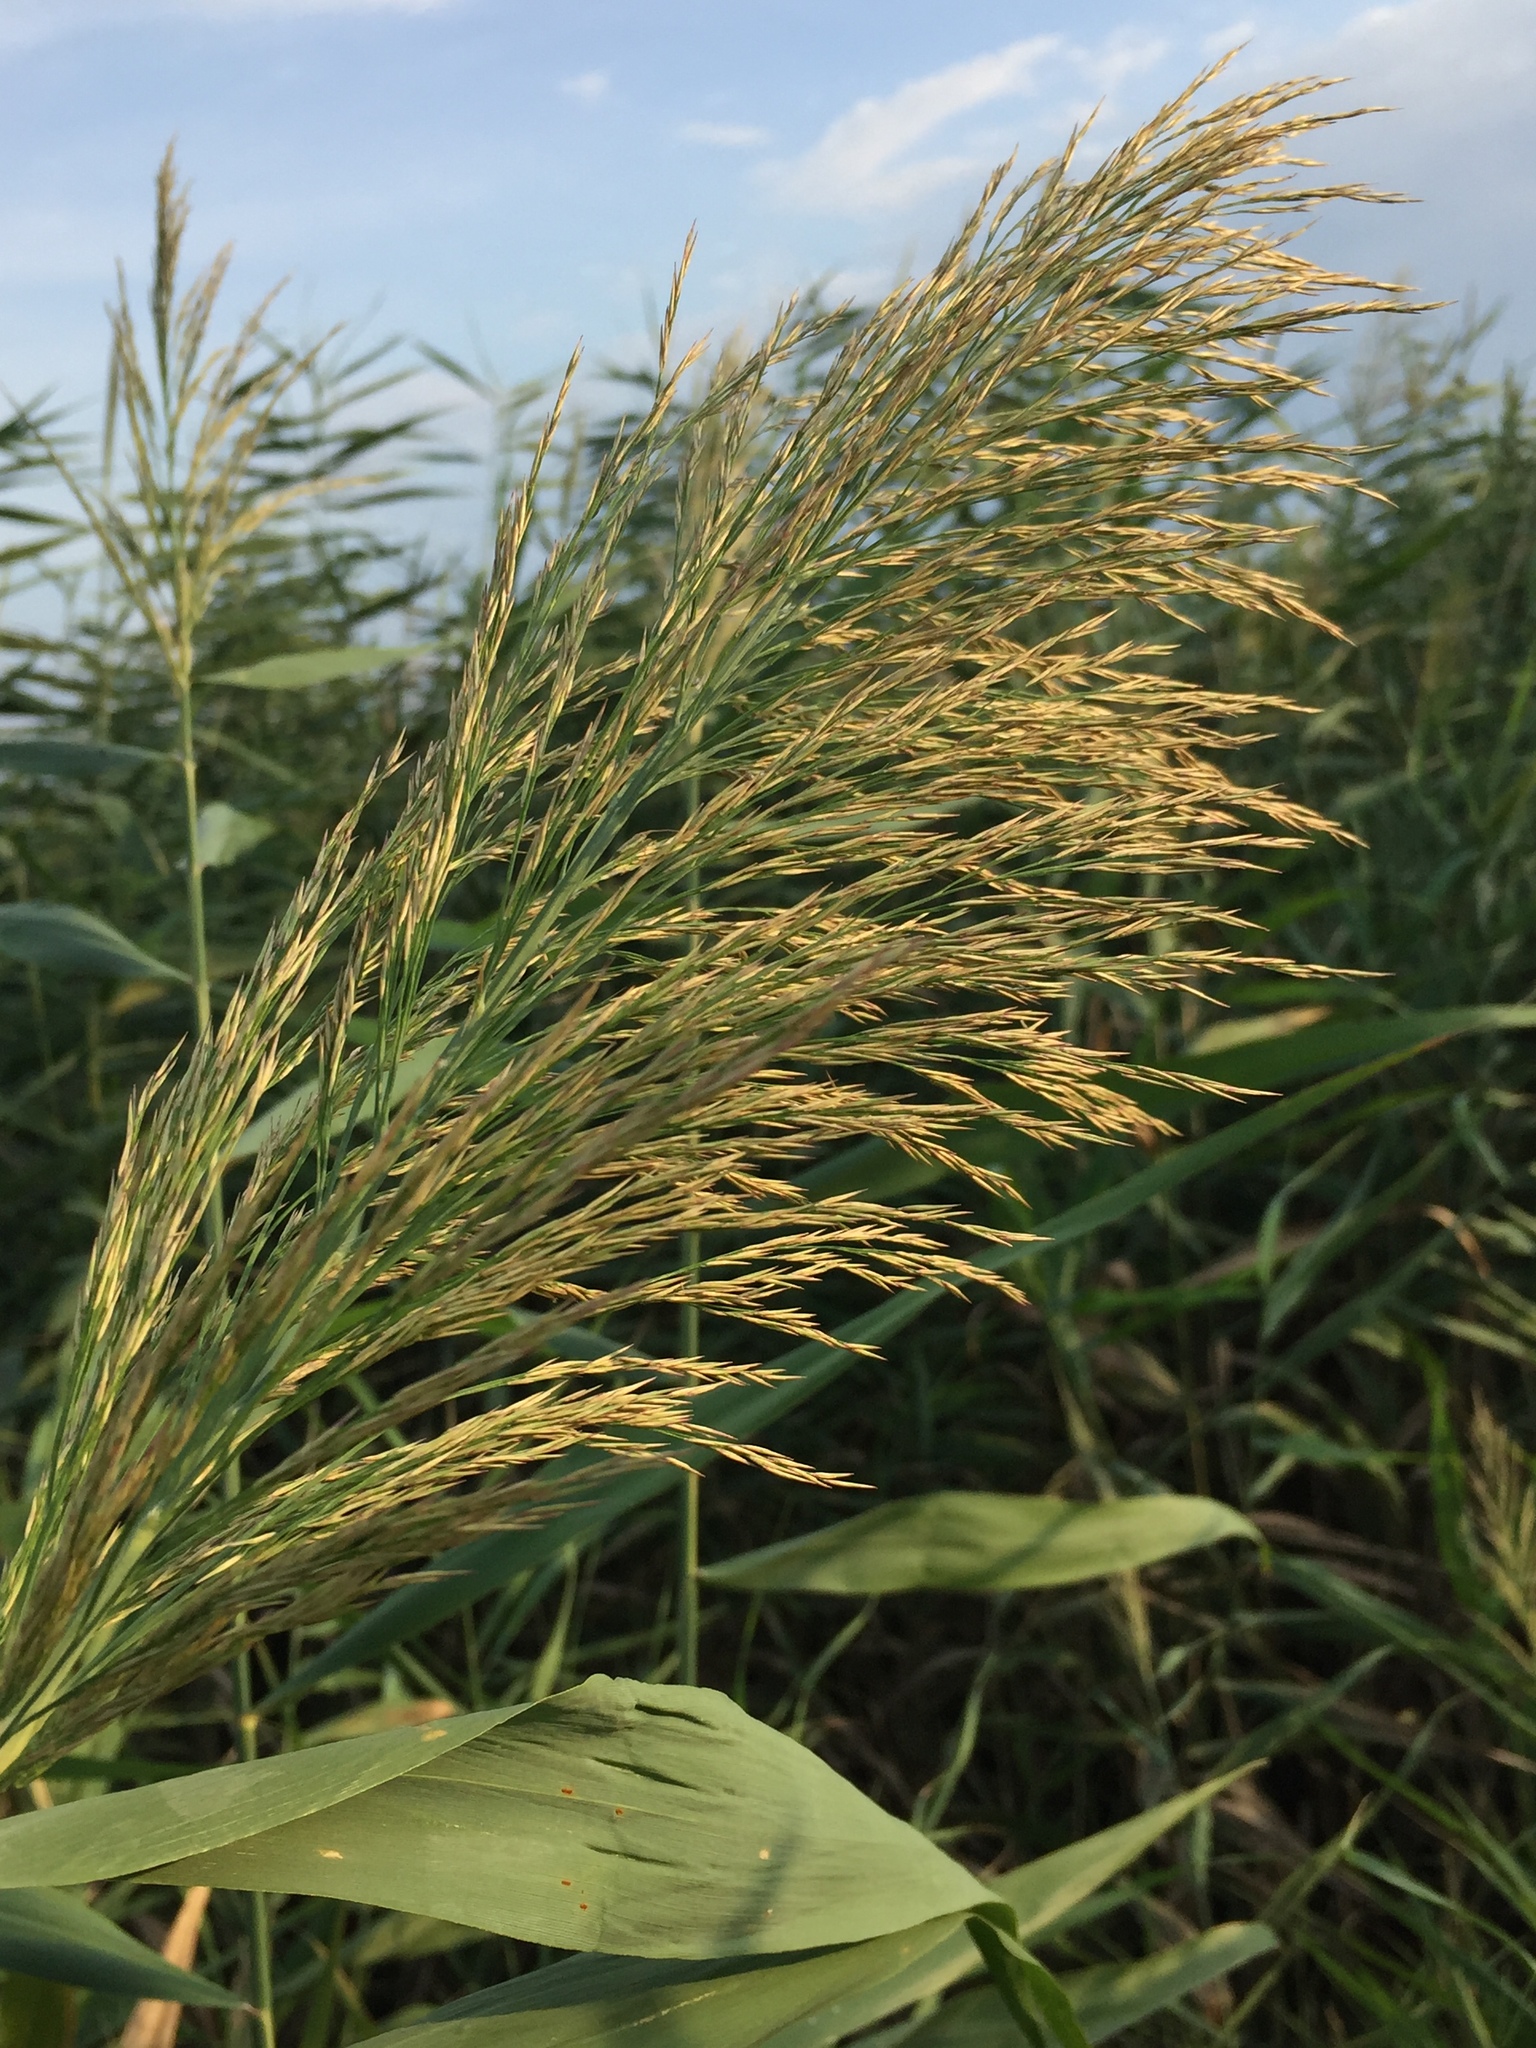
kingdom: Plantae
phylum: Tracheophyta
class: Liliopsida
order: Poales
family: Poaceae
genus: Phragmites
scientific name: Phragmites australis
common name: Common reed
